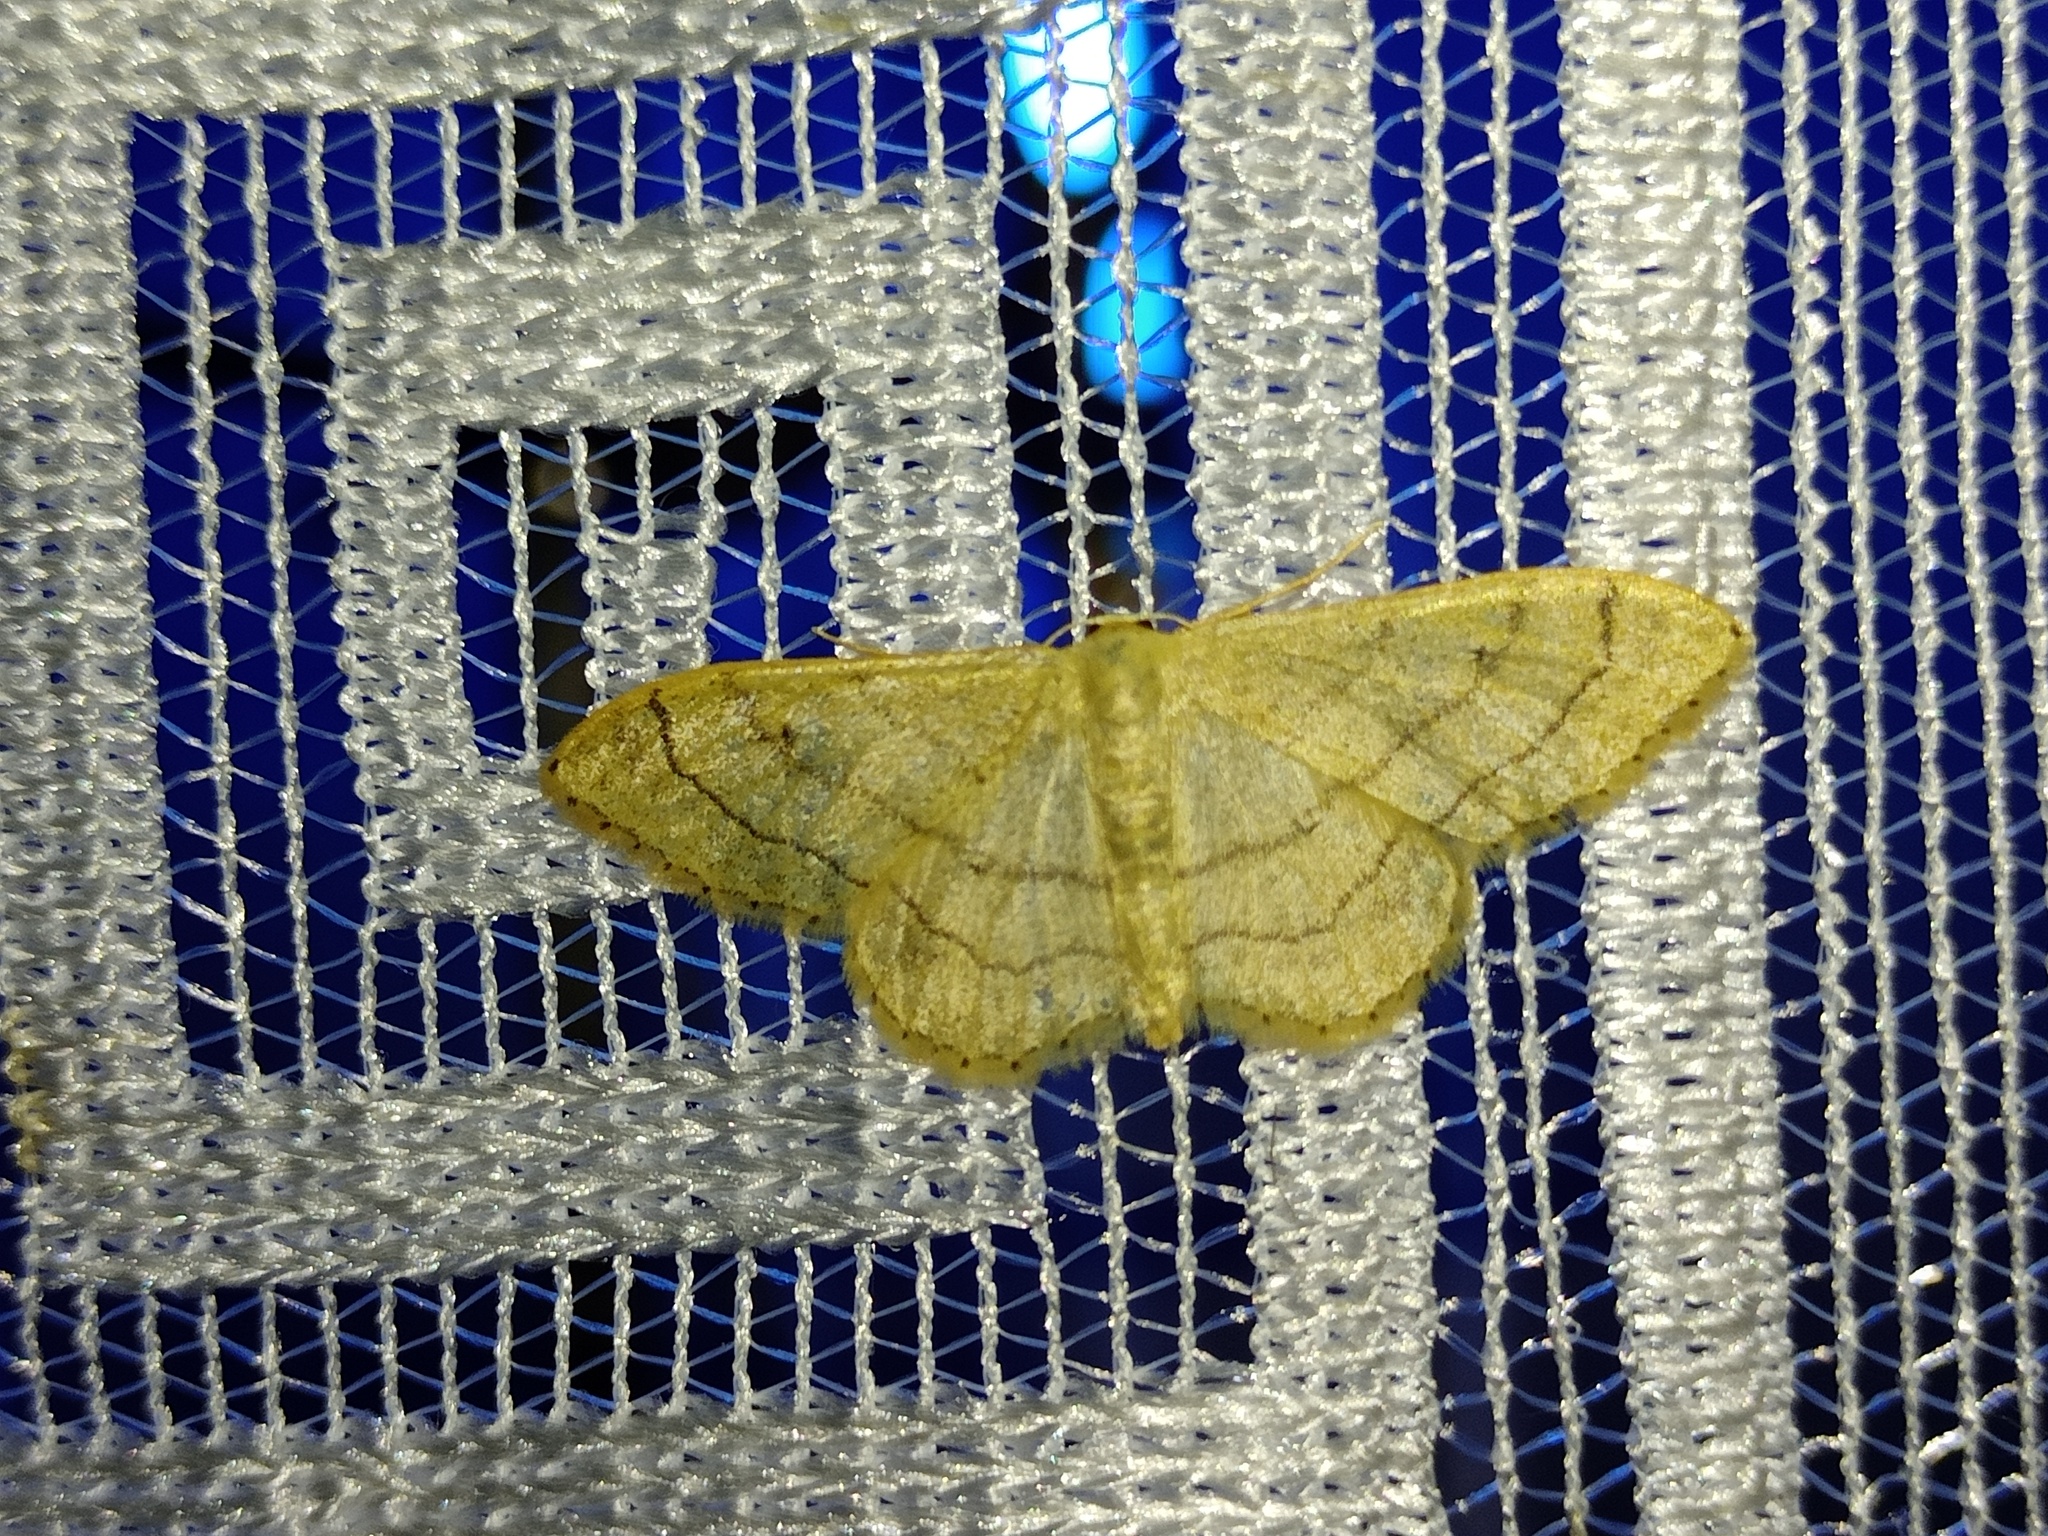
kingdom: Animalia
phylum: Arthropoda
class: Insecta
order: Lepidoptera
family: Geometridae
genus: Idaea
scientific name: Idaea aversata
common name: Riband wave
